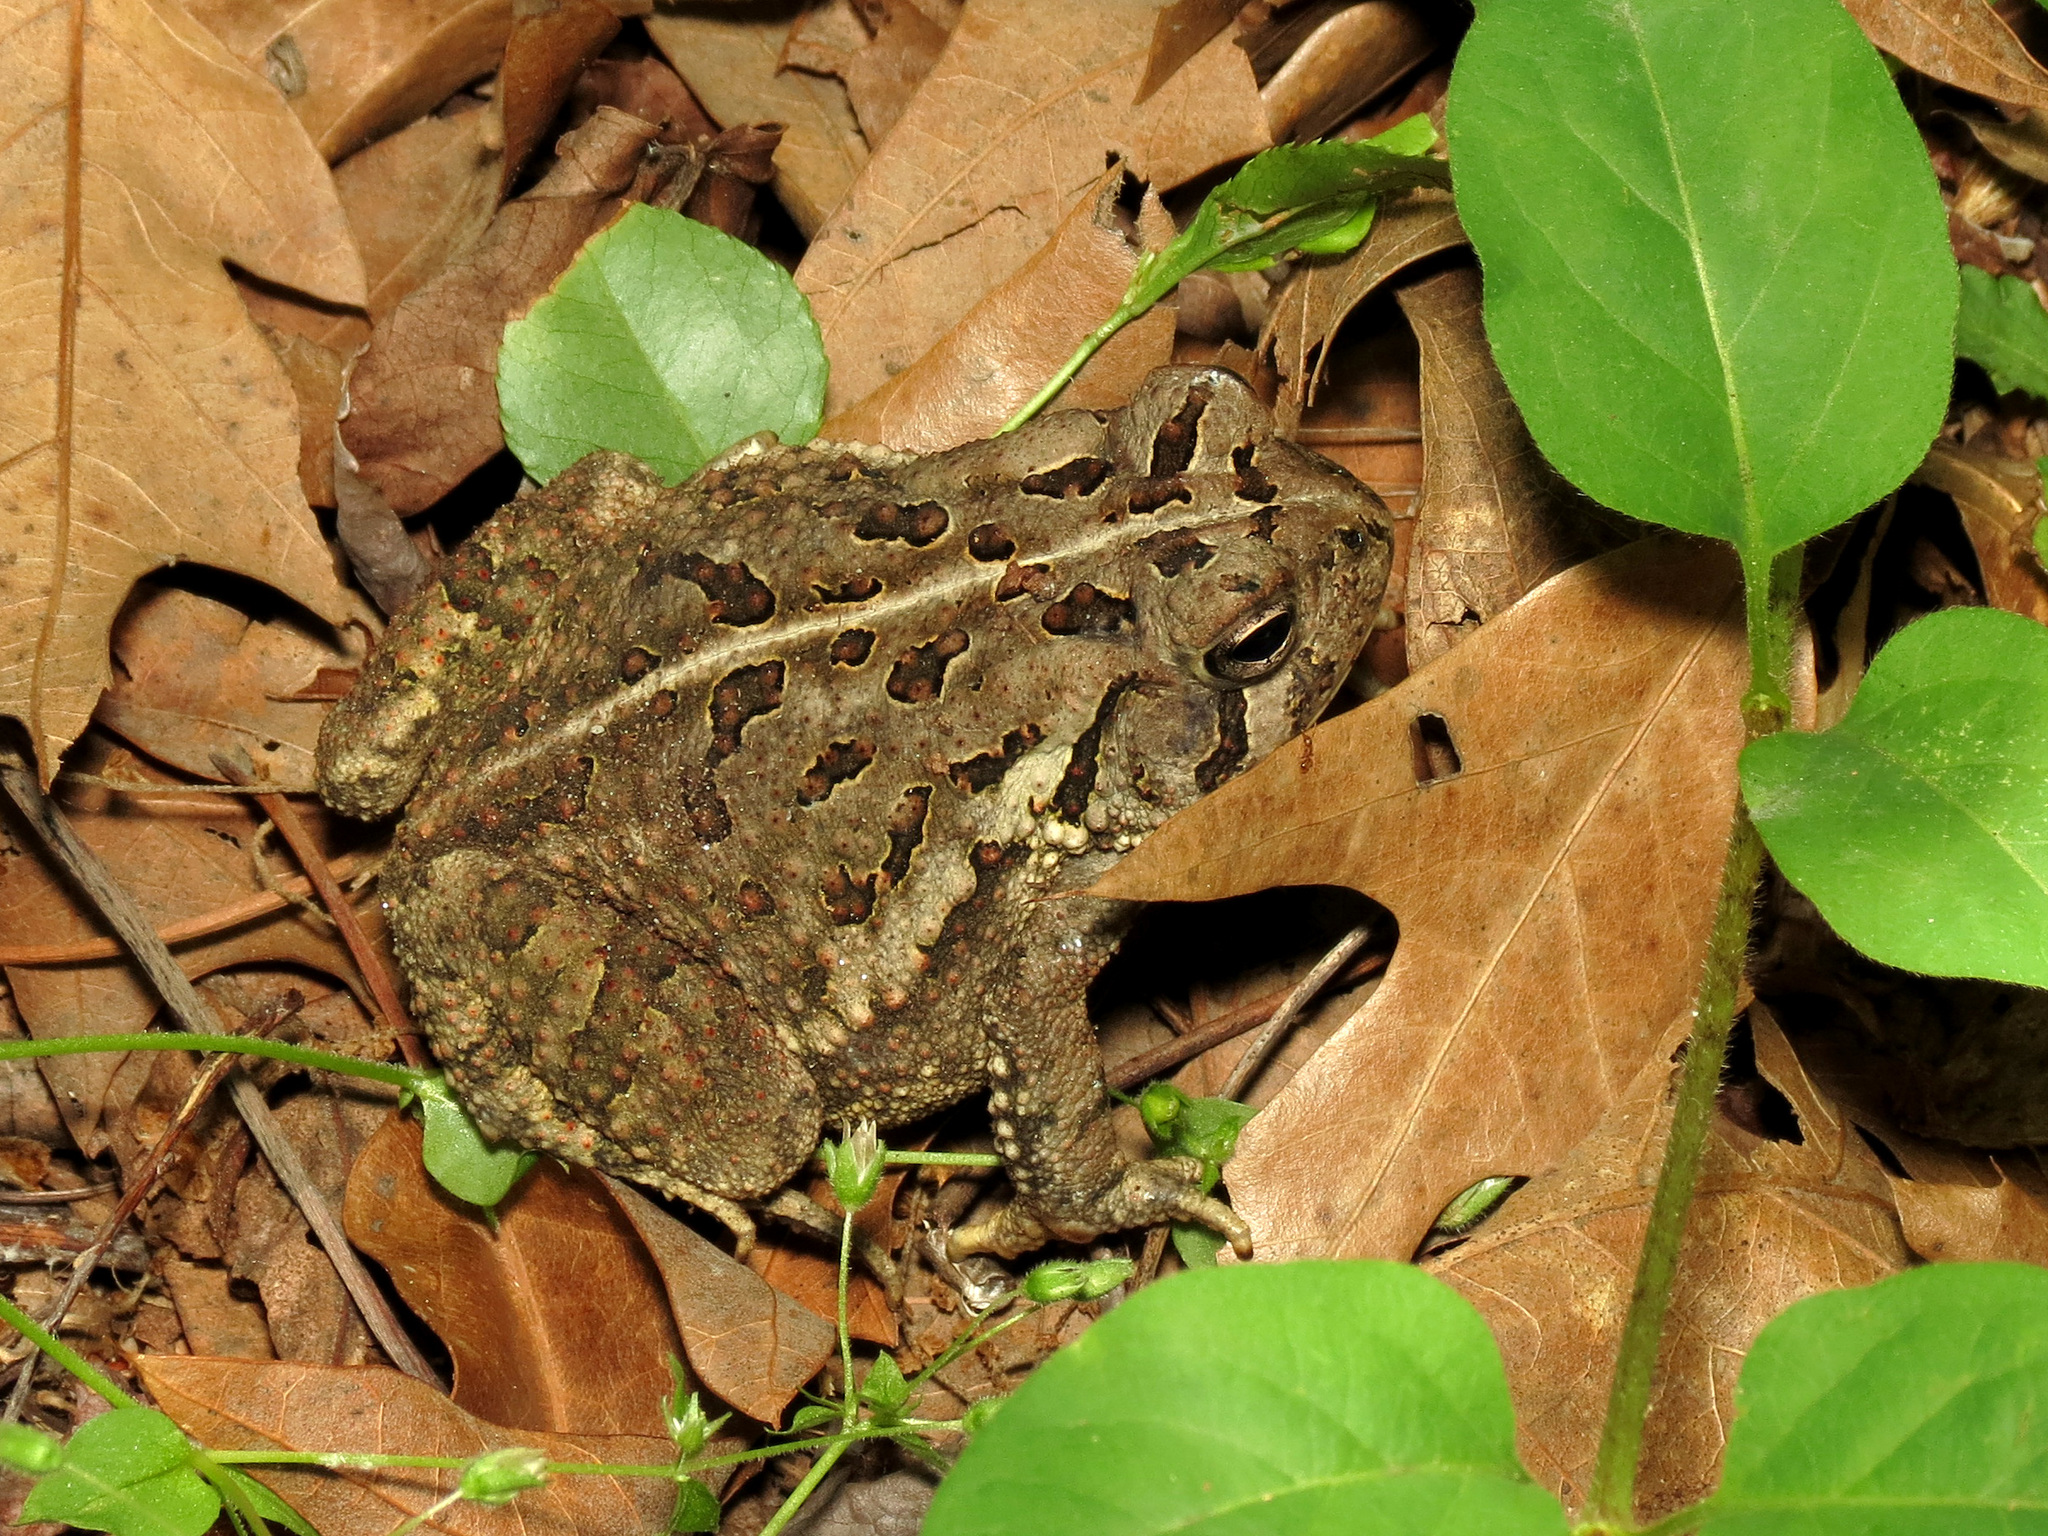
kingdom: Animalia
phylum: Chordata
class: Amphibia
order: Anura
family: Bufonidae
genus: Anaxyrus
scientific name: Anaxyrus fowleri
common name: Fowler's toad
